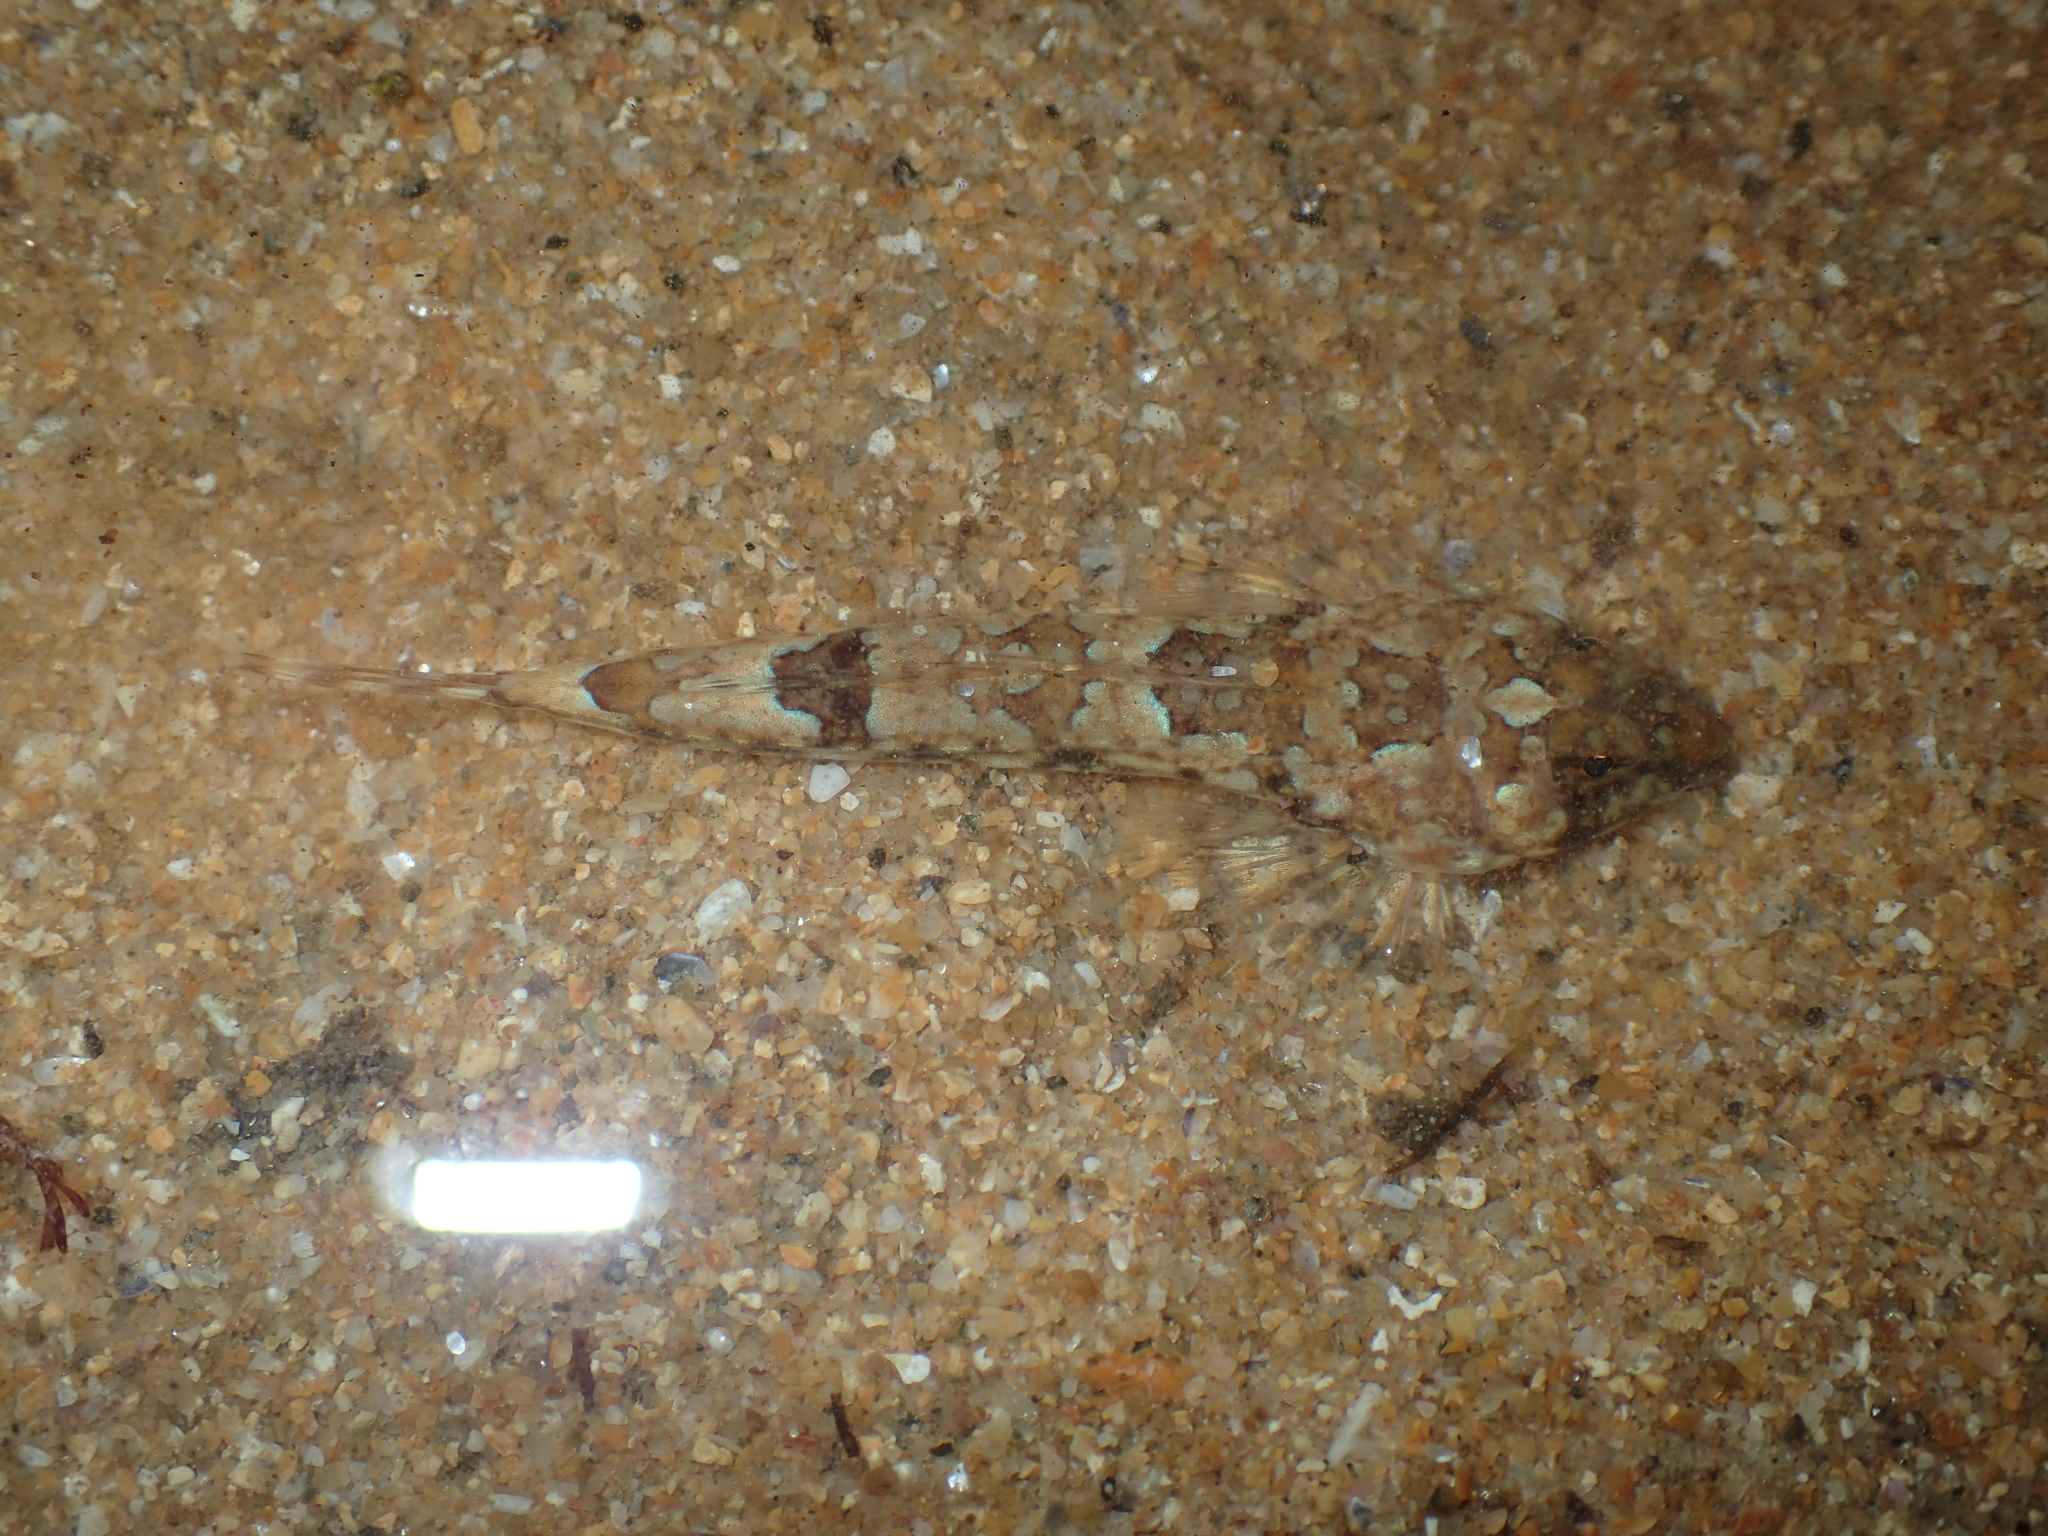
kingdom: Animalia
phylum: Chordata
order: Perciformes
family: Callionymidae
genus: Callionymus
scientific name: Callionymus lyra
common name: Dragonet
